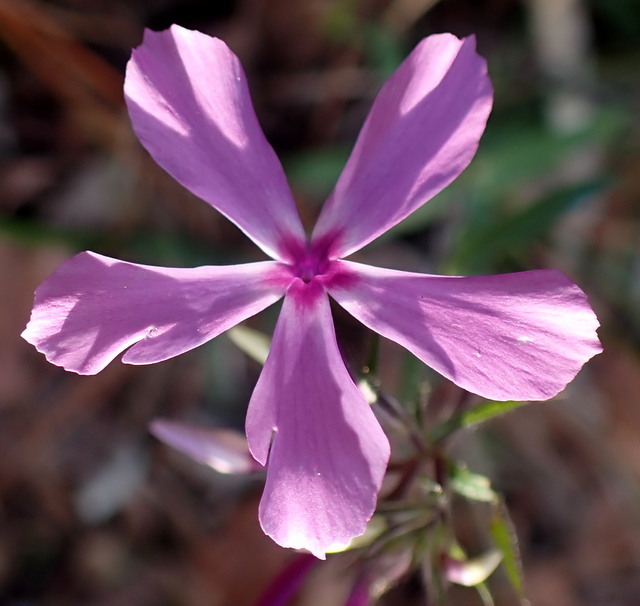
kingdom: Plantae
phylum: Tracheophyta
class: Magnoliopsida
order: Ericales
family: Polemoniaceae
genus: Phlox
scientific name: Phlox divaricata
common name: Blue phlox
